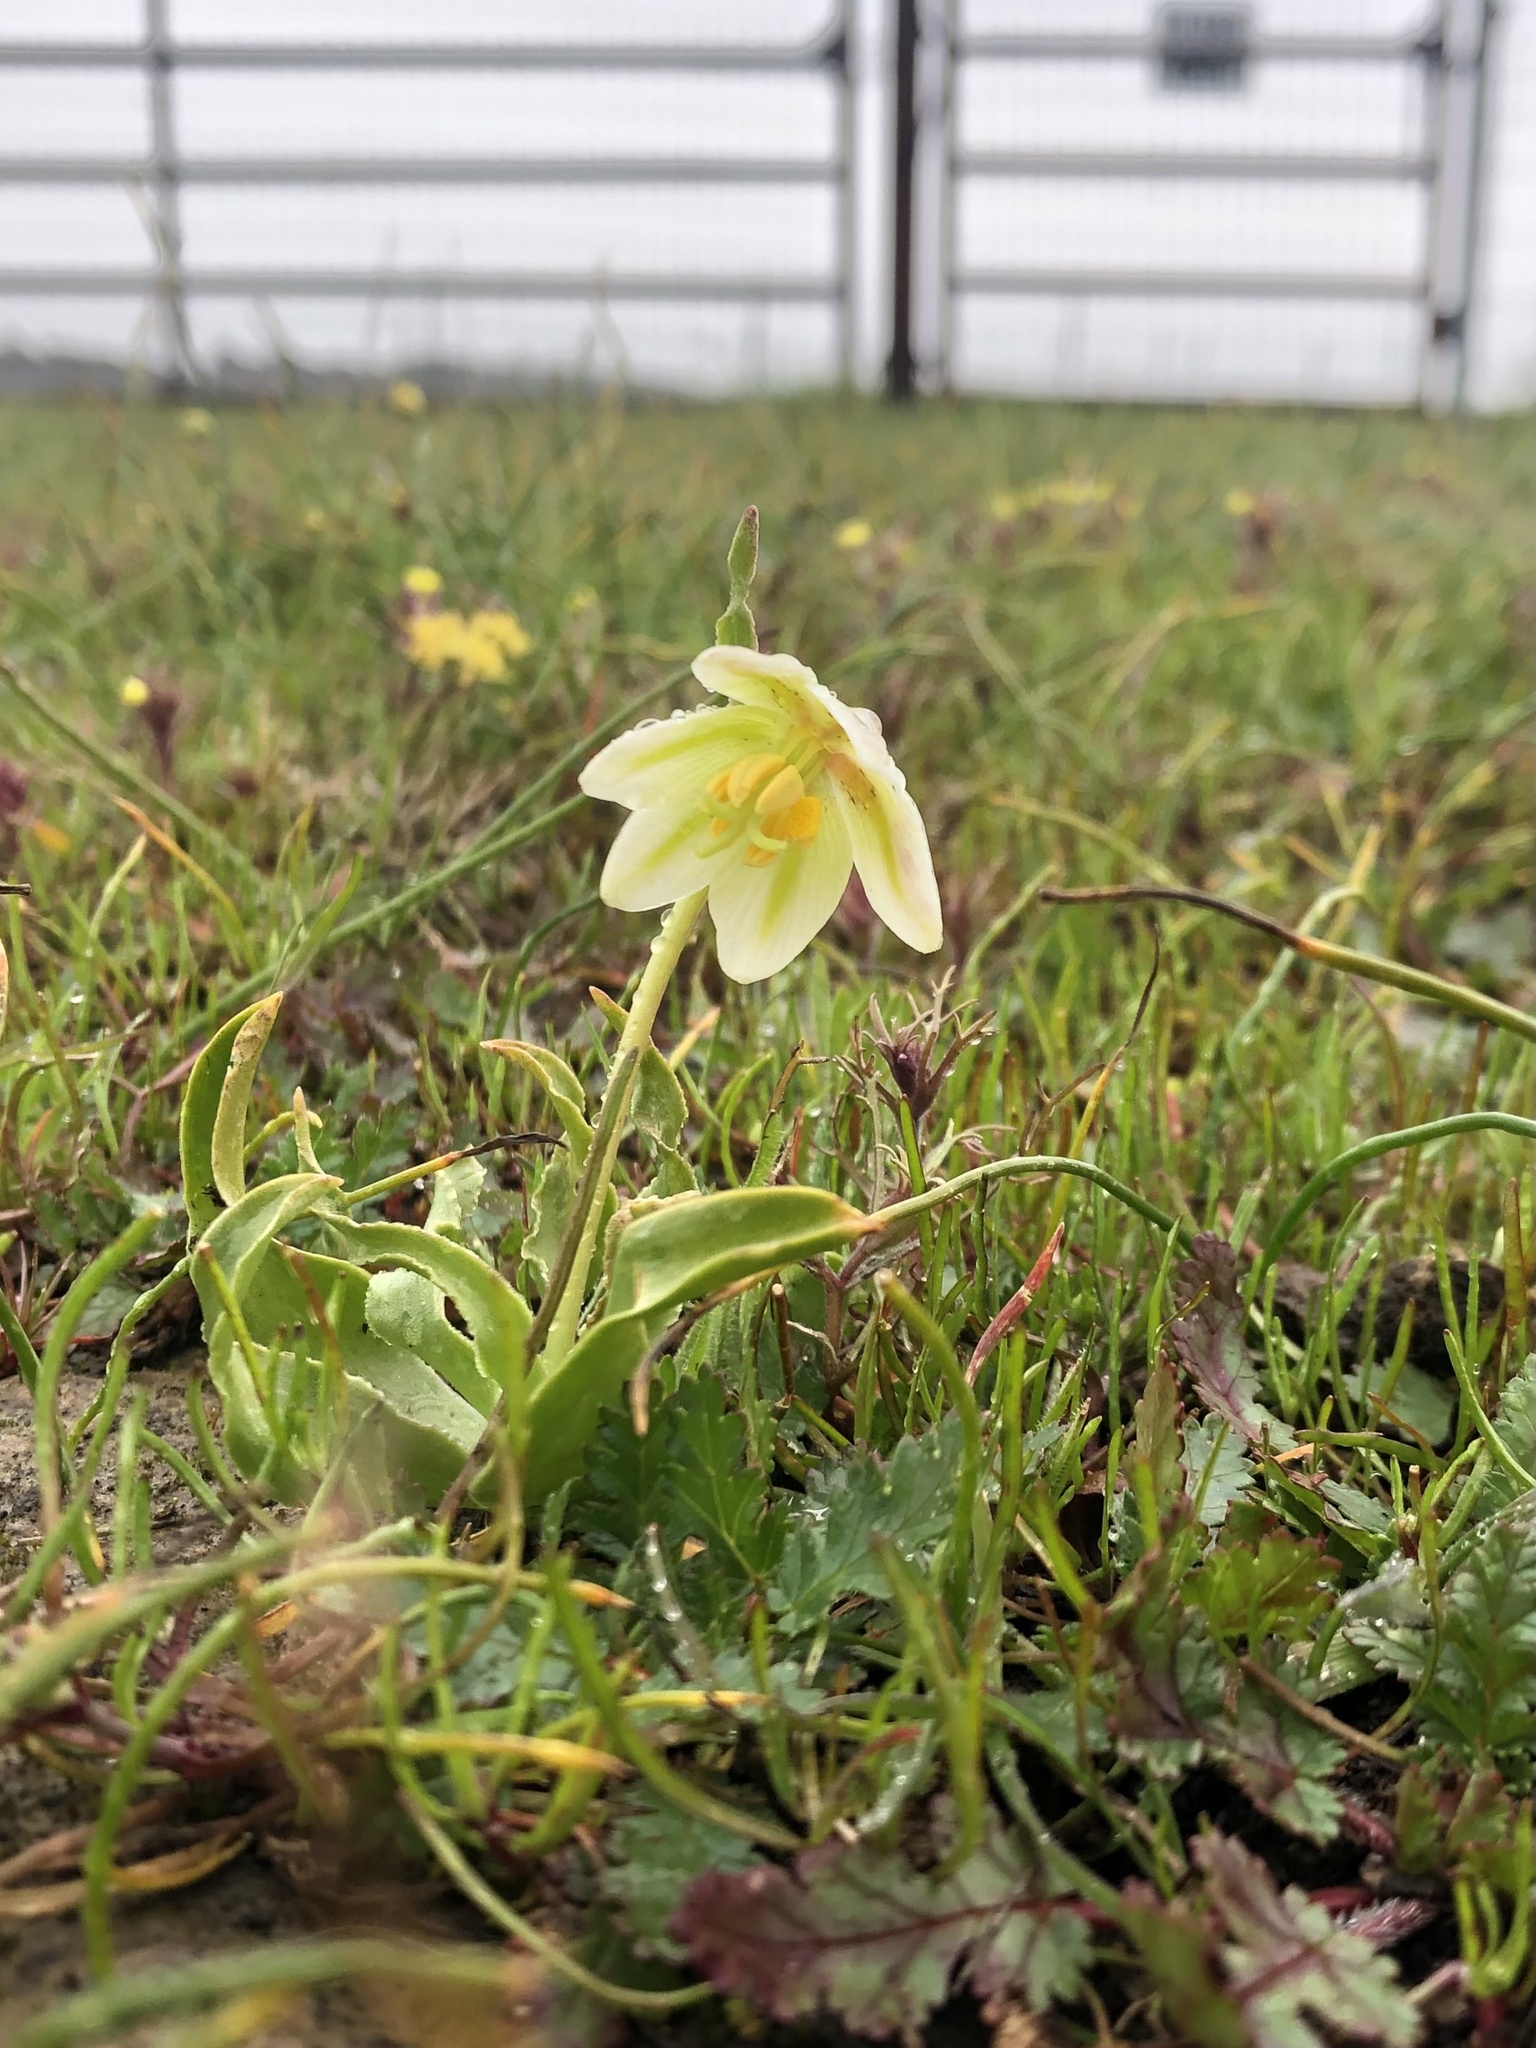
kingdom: Plantae
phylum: Tracheophyta
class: Liliopsida
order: Liliales
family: Liliaceae
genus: Fritillaria
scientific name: Fritillaria liliacea
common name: Fragrant fritillary
